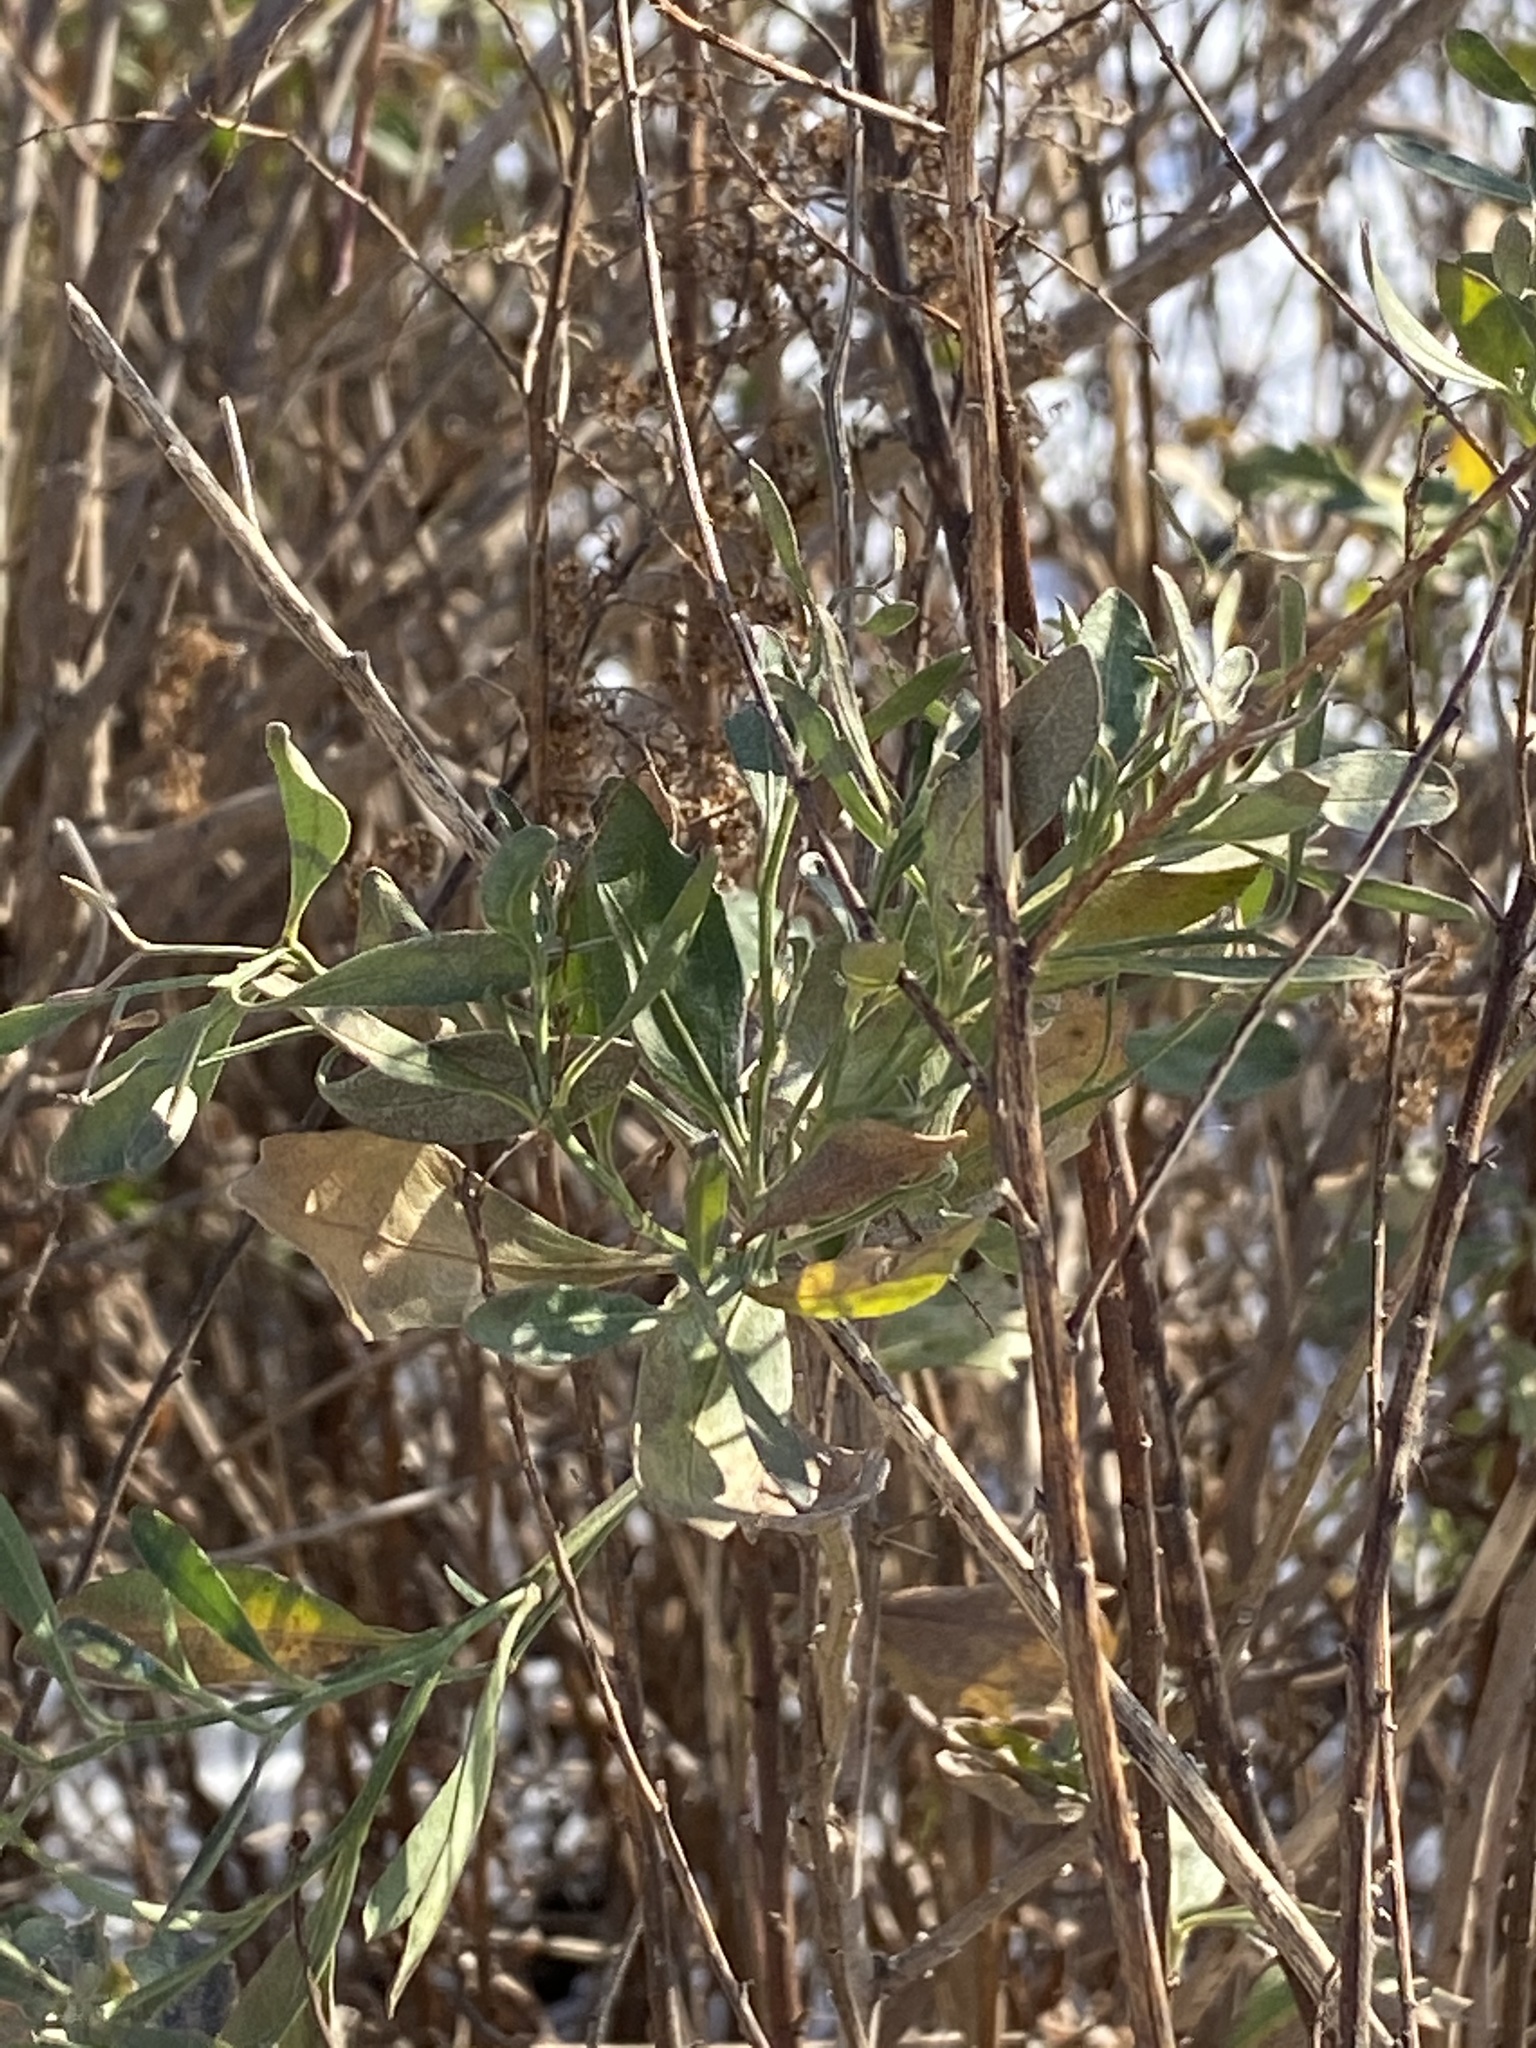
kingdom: Plantae
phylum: Tracheophyta
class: Magnoliopsida
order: Asterales
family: Asteraceae
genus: Baccharis
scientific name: Baccharis halimifolia
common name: Eastern baccharis
